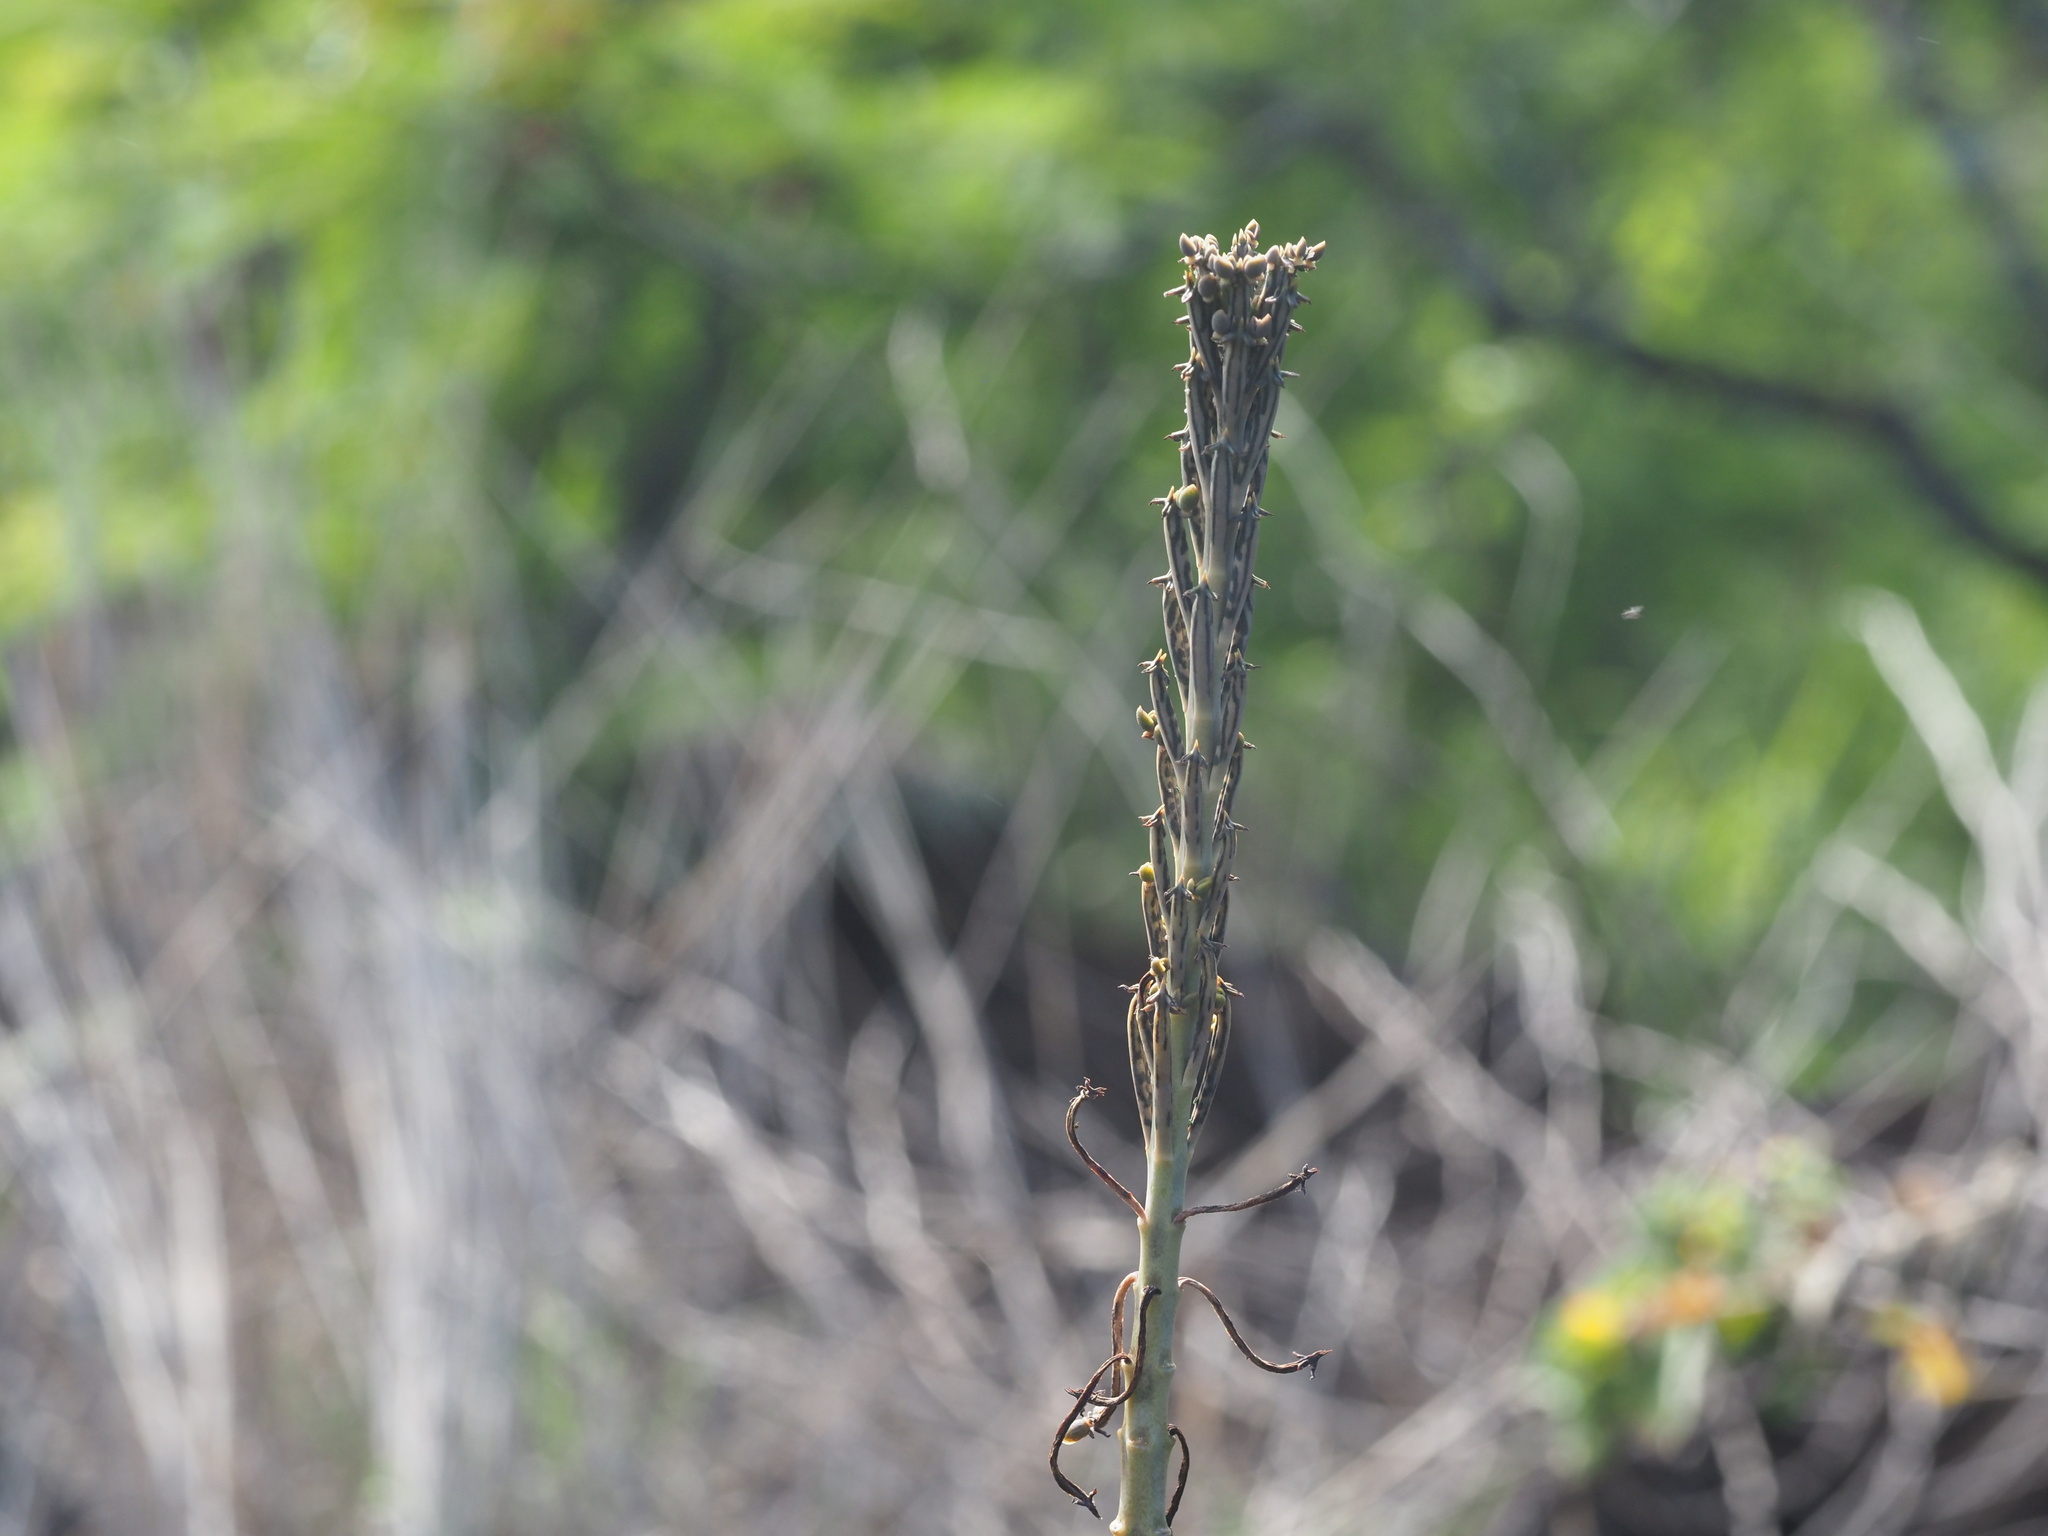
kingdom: Plantae
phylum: Tracheophyta
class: Magnoliopsida
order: Saxifragales
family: Crassulaceae
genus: Kalanchoe
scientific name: Kalanchoe delagoensis
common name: Chandelier plant
